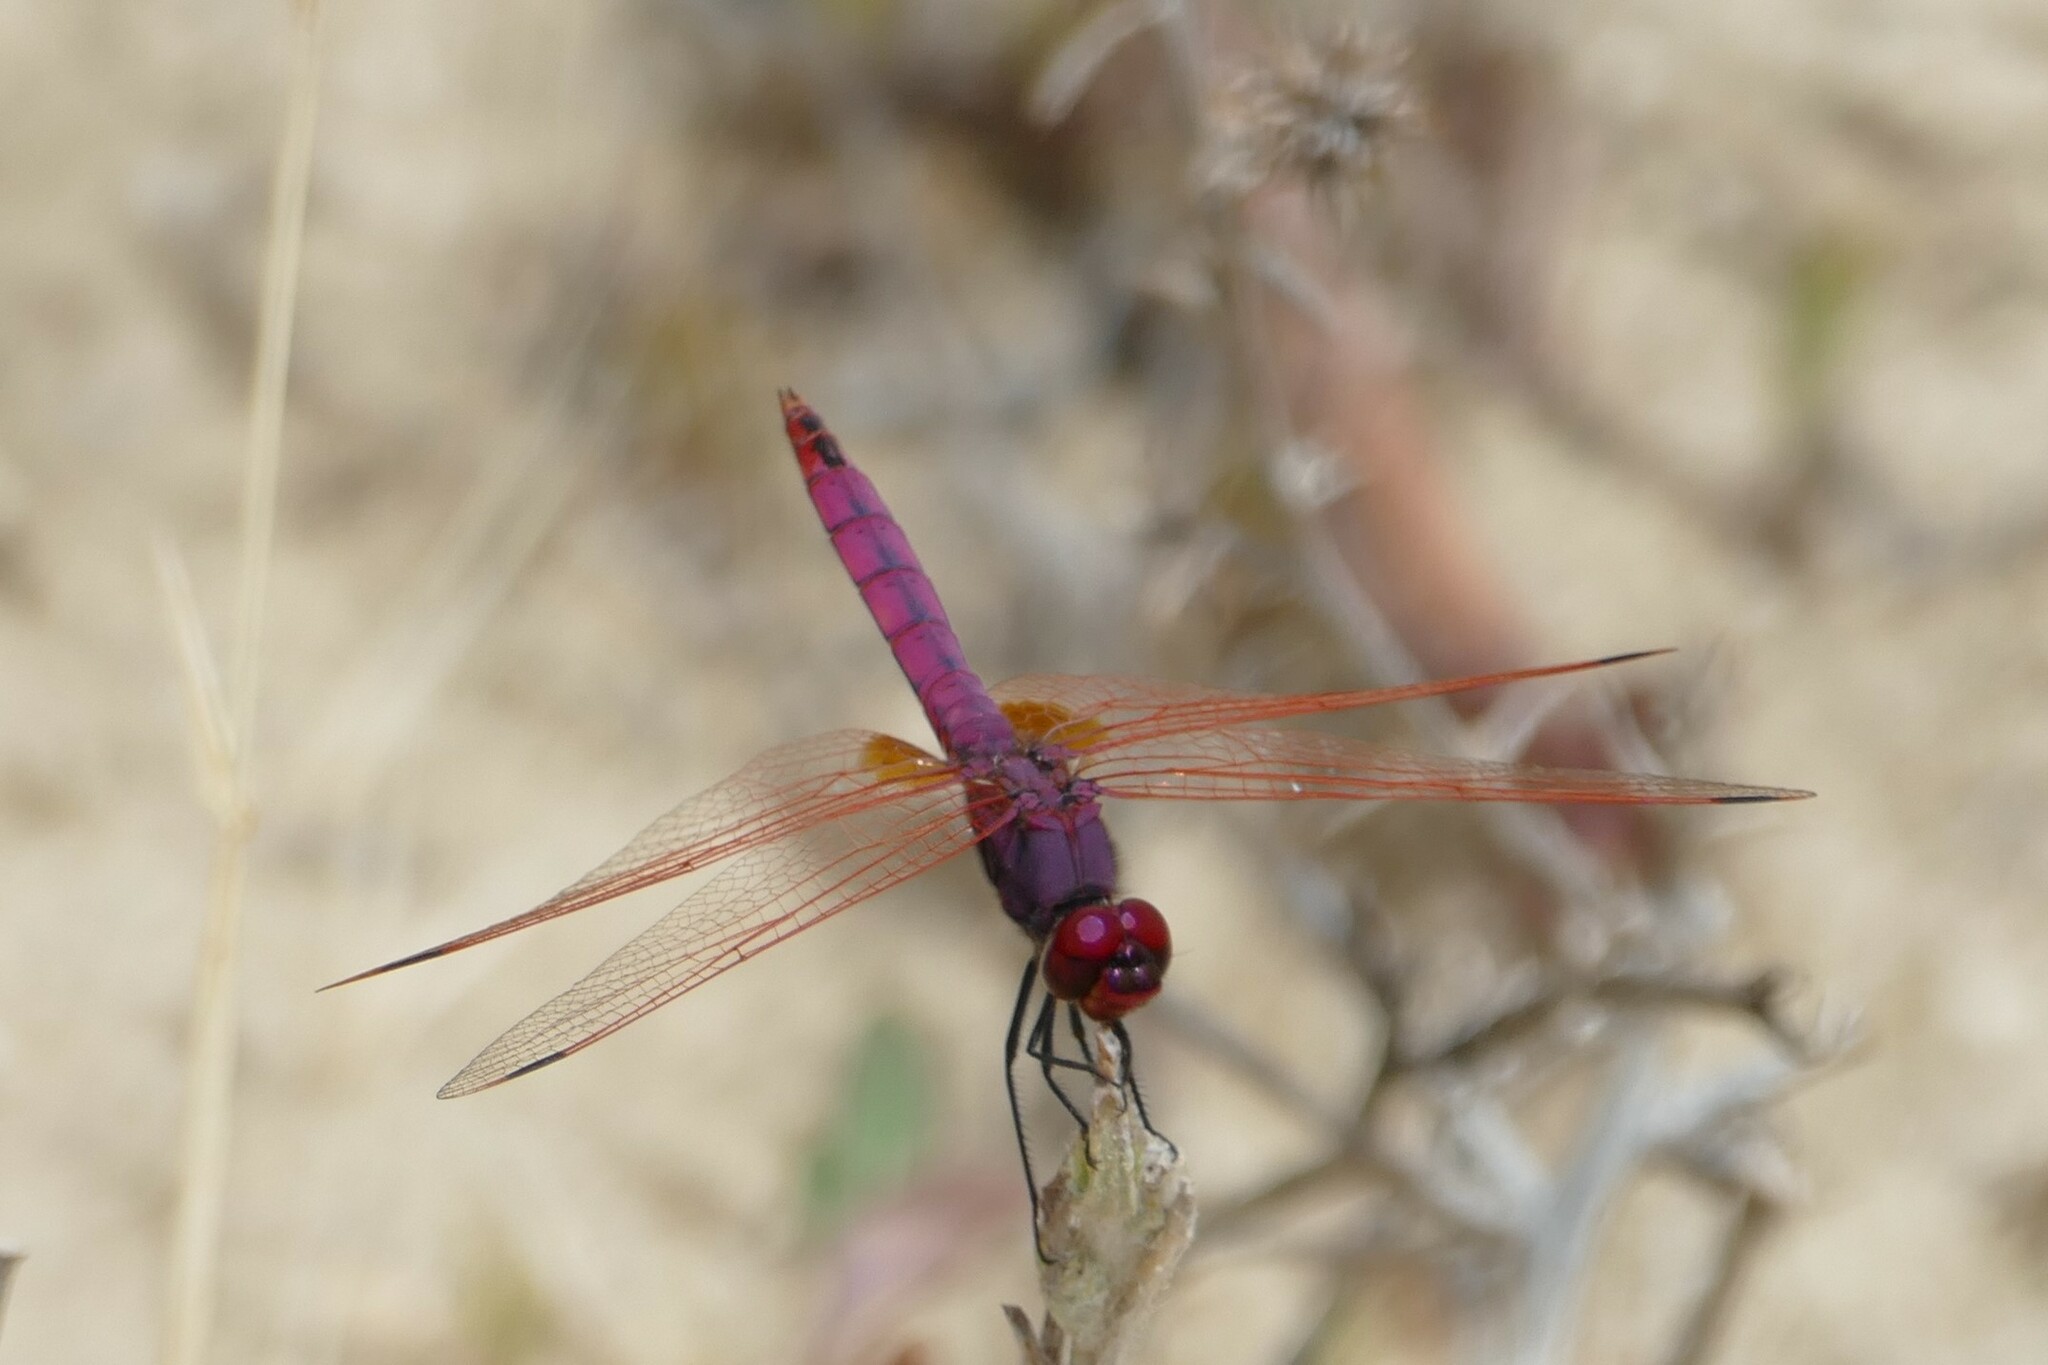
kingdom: Animalia
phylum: Arthropoda
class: Insecta
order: Odonata
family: Libellulidae
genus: Trithemis
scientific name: Trithemis annulata
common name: Violet dropwing
